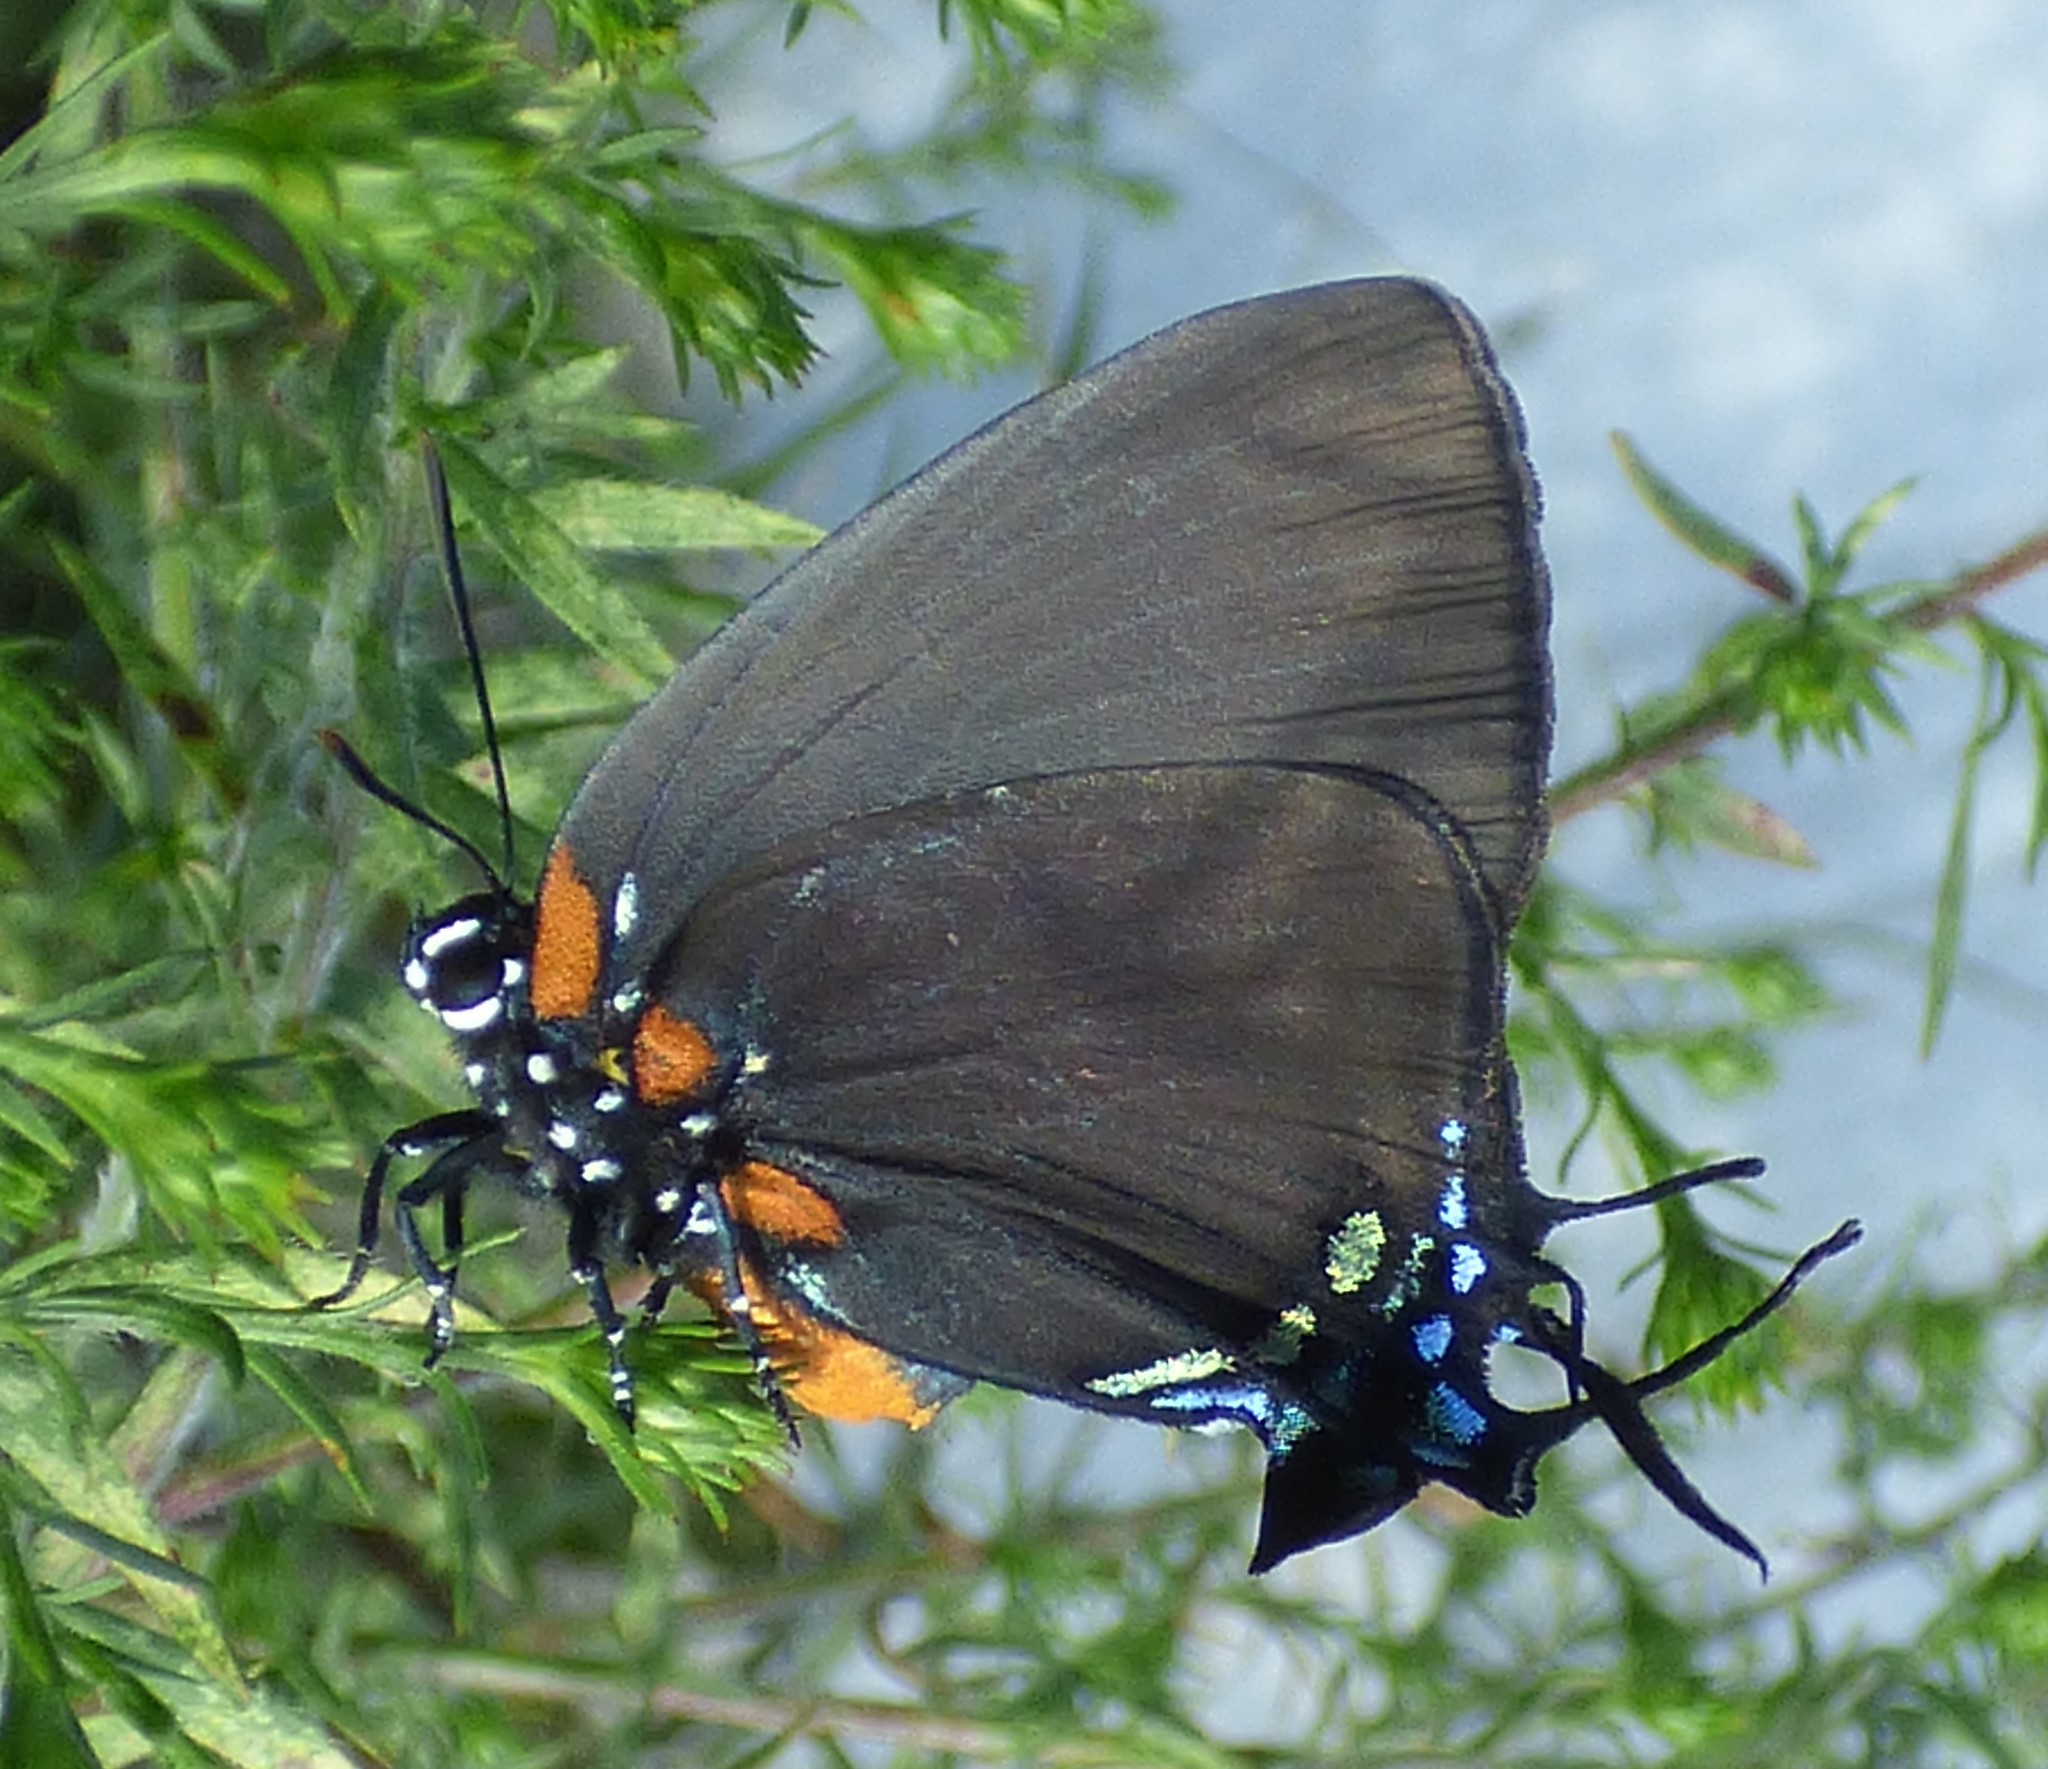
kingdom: Animalia
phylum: Arthropoda
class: Insecta
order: Lepidoptera
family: Lycaenidae
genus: Atlides
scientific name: Atlides halesus
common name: Great purple hairstreak
